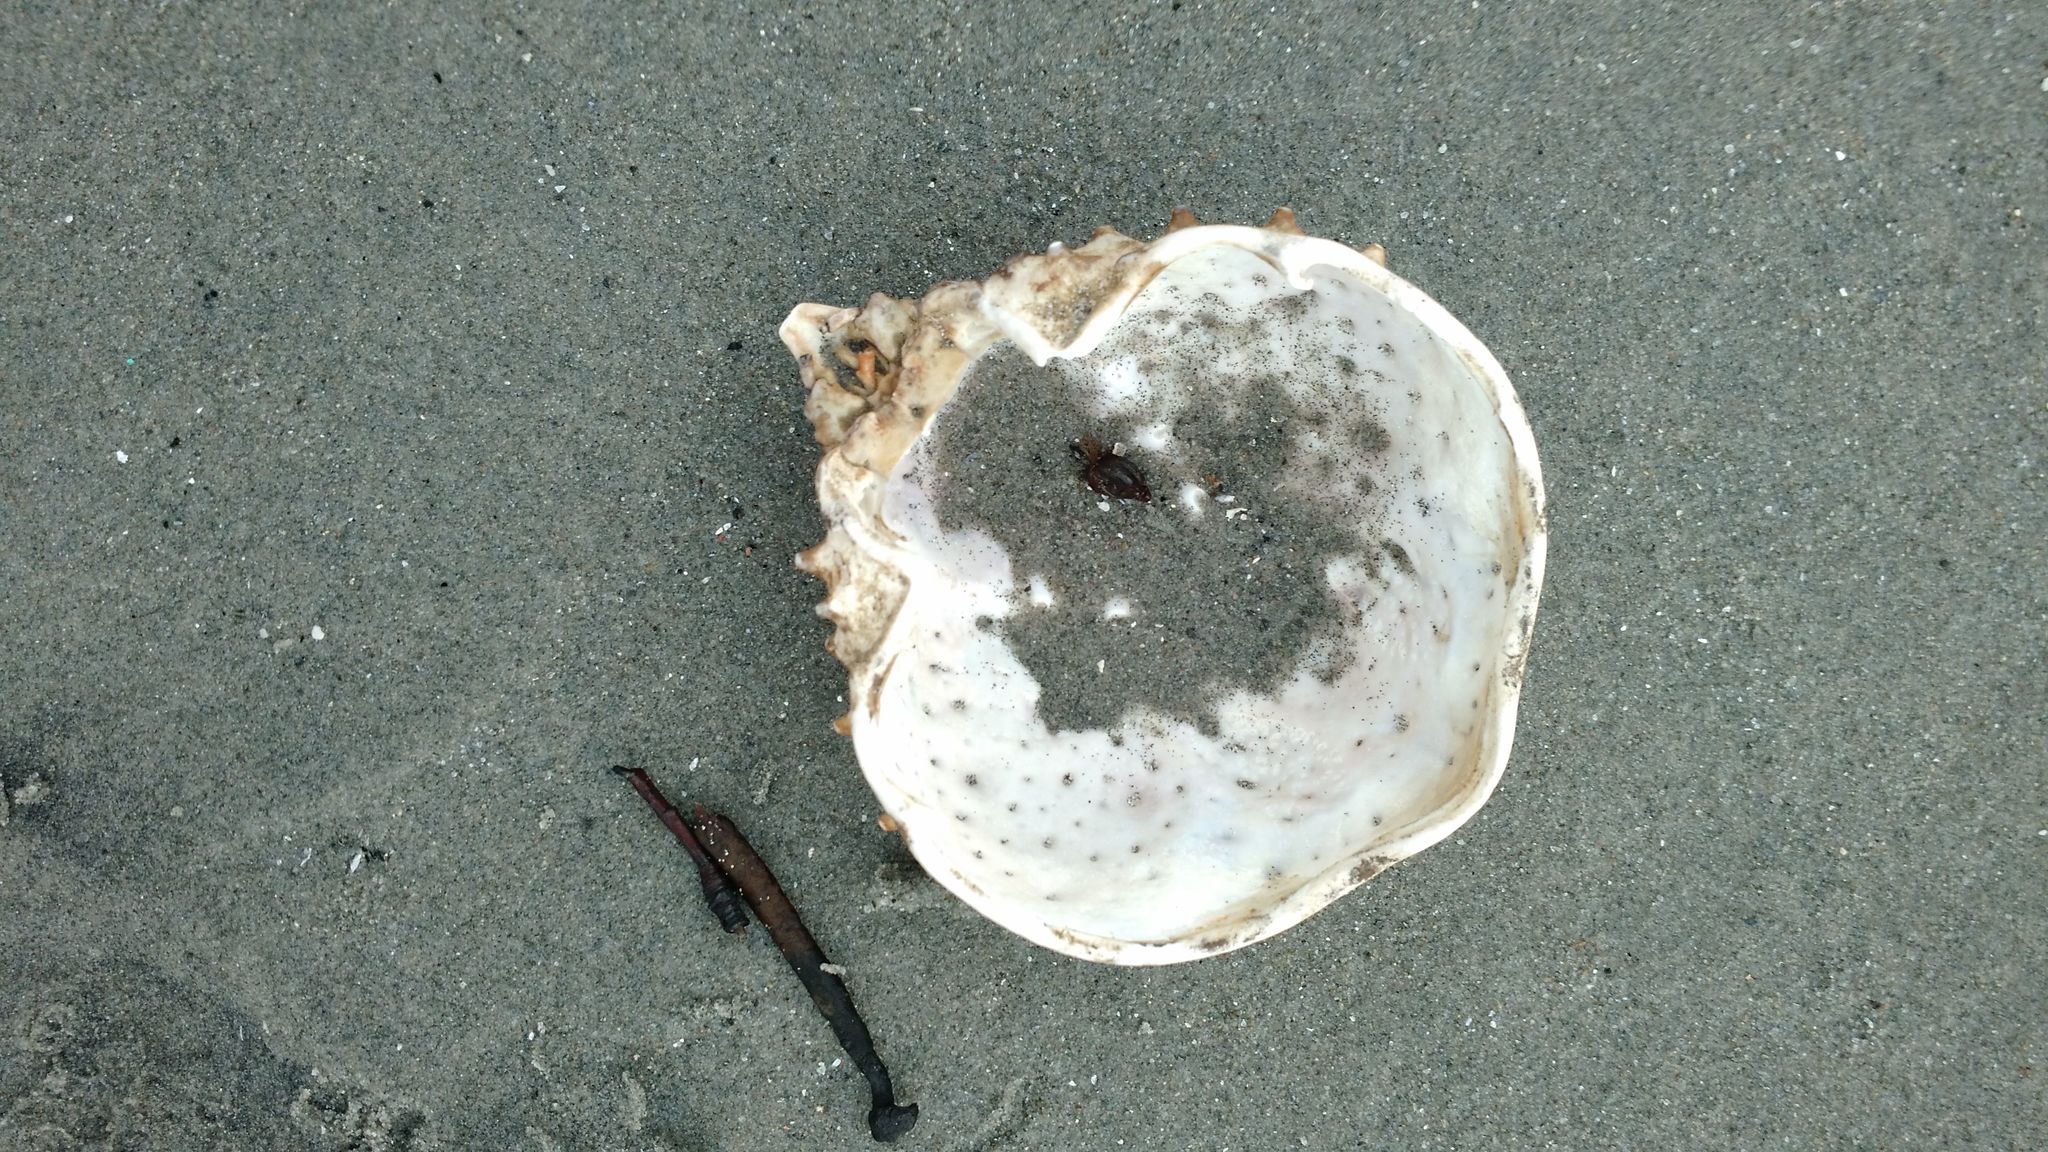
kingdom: Animalia
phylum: Arthropoda
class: Malacostraca
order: Decapoda
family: Epialtidae
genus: Libinia
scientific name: Libinia emarginata
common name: Common spider crab
